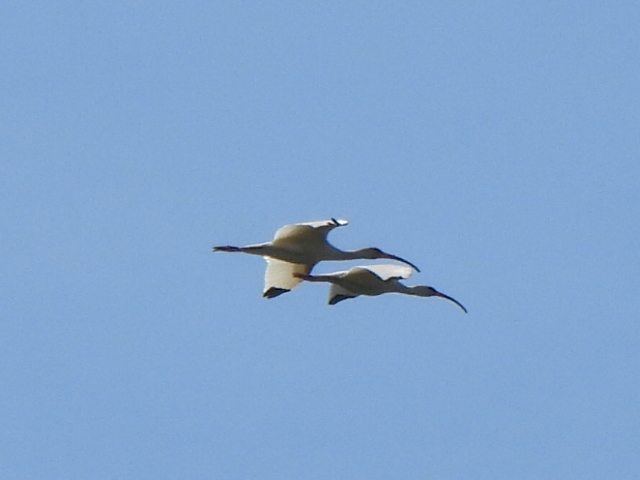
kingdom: Animalia
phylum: Chordata
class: Aves
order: Pelecaniformes
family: Threskiornithidae
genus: Eudocimus
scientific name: Eudocimus albus
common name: White ibis
